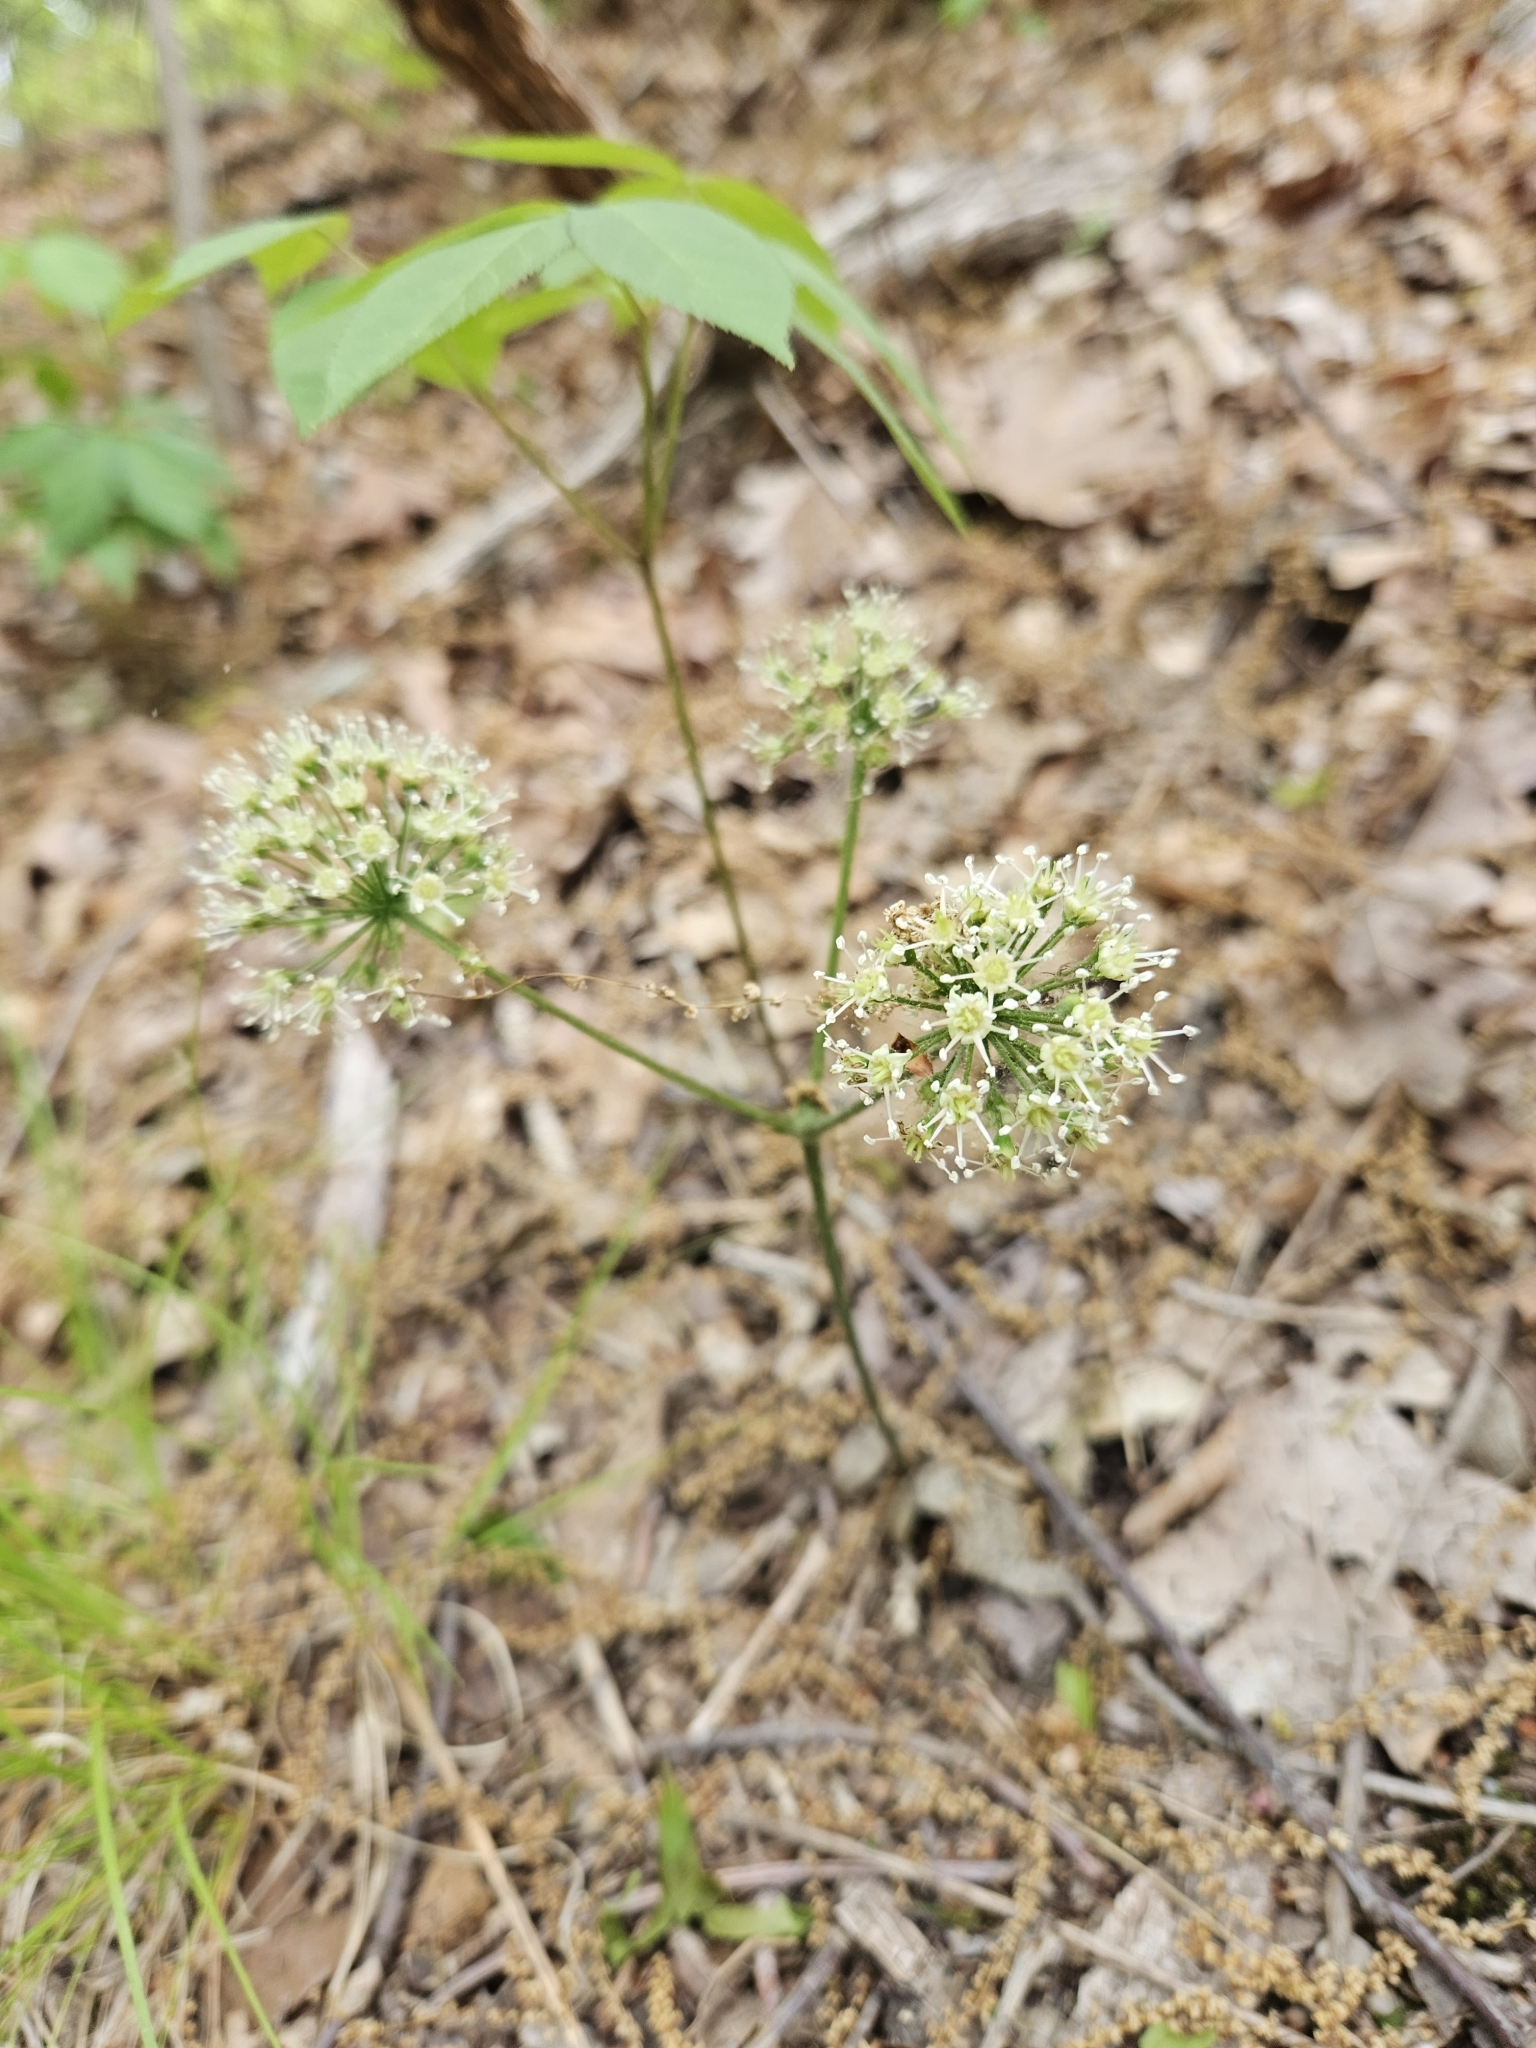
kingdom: Plantae
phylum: Tracheophyta
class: Magnoliopsida
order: Apiales
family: Araliaceae
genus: Aralia
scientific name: Aralia nudicaulis
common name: Wild sarsaparilla
